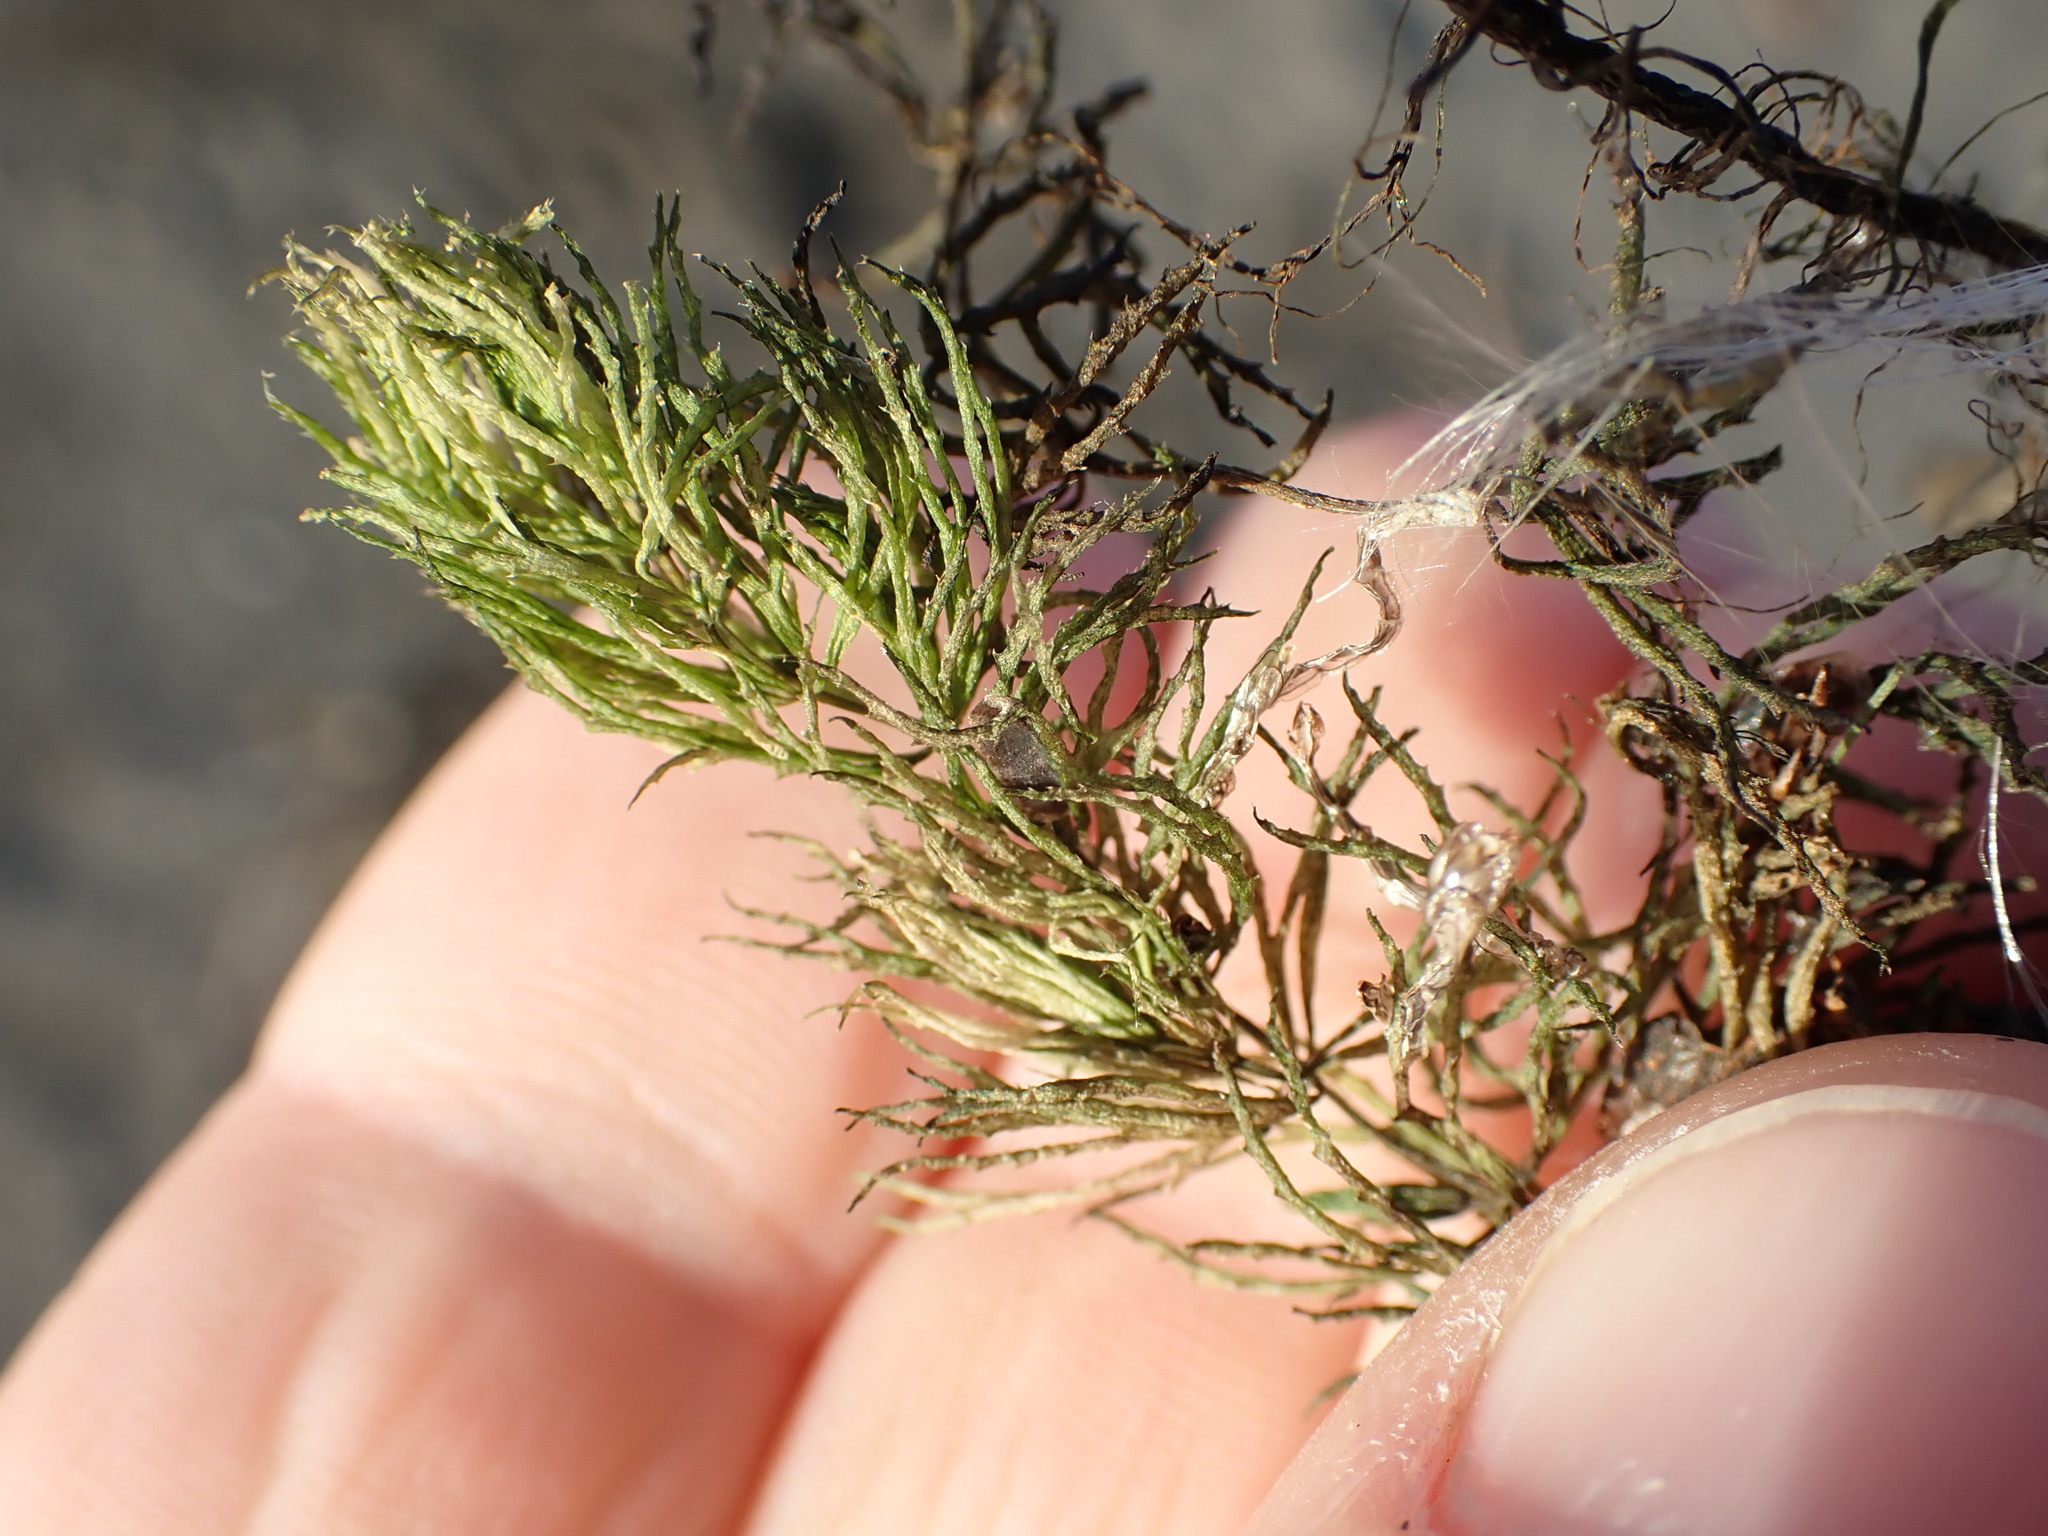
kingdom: Plantae
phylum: Tracheophyta
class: Magnoliopsida
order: Ceratophyllales
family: Ceratophyllaceae
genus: Ceratophyllum
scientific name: Ceratophyllum demersum
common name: Rigid hornwort
